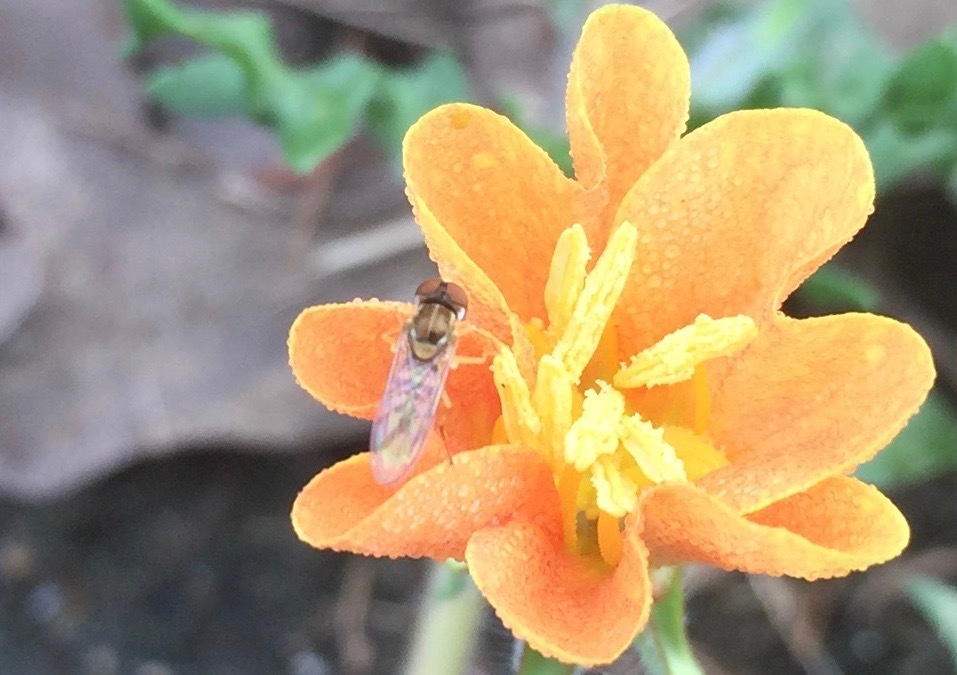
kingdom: Animalia
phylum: Arthropoda
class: Insecta
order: Diptera
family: Syrphidae
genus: Toxomerus
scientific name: Toxomerus marginatus
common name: Syrphid fly
